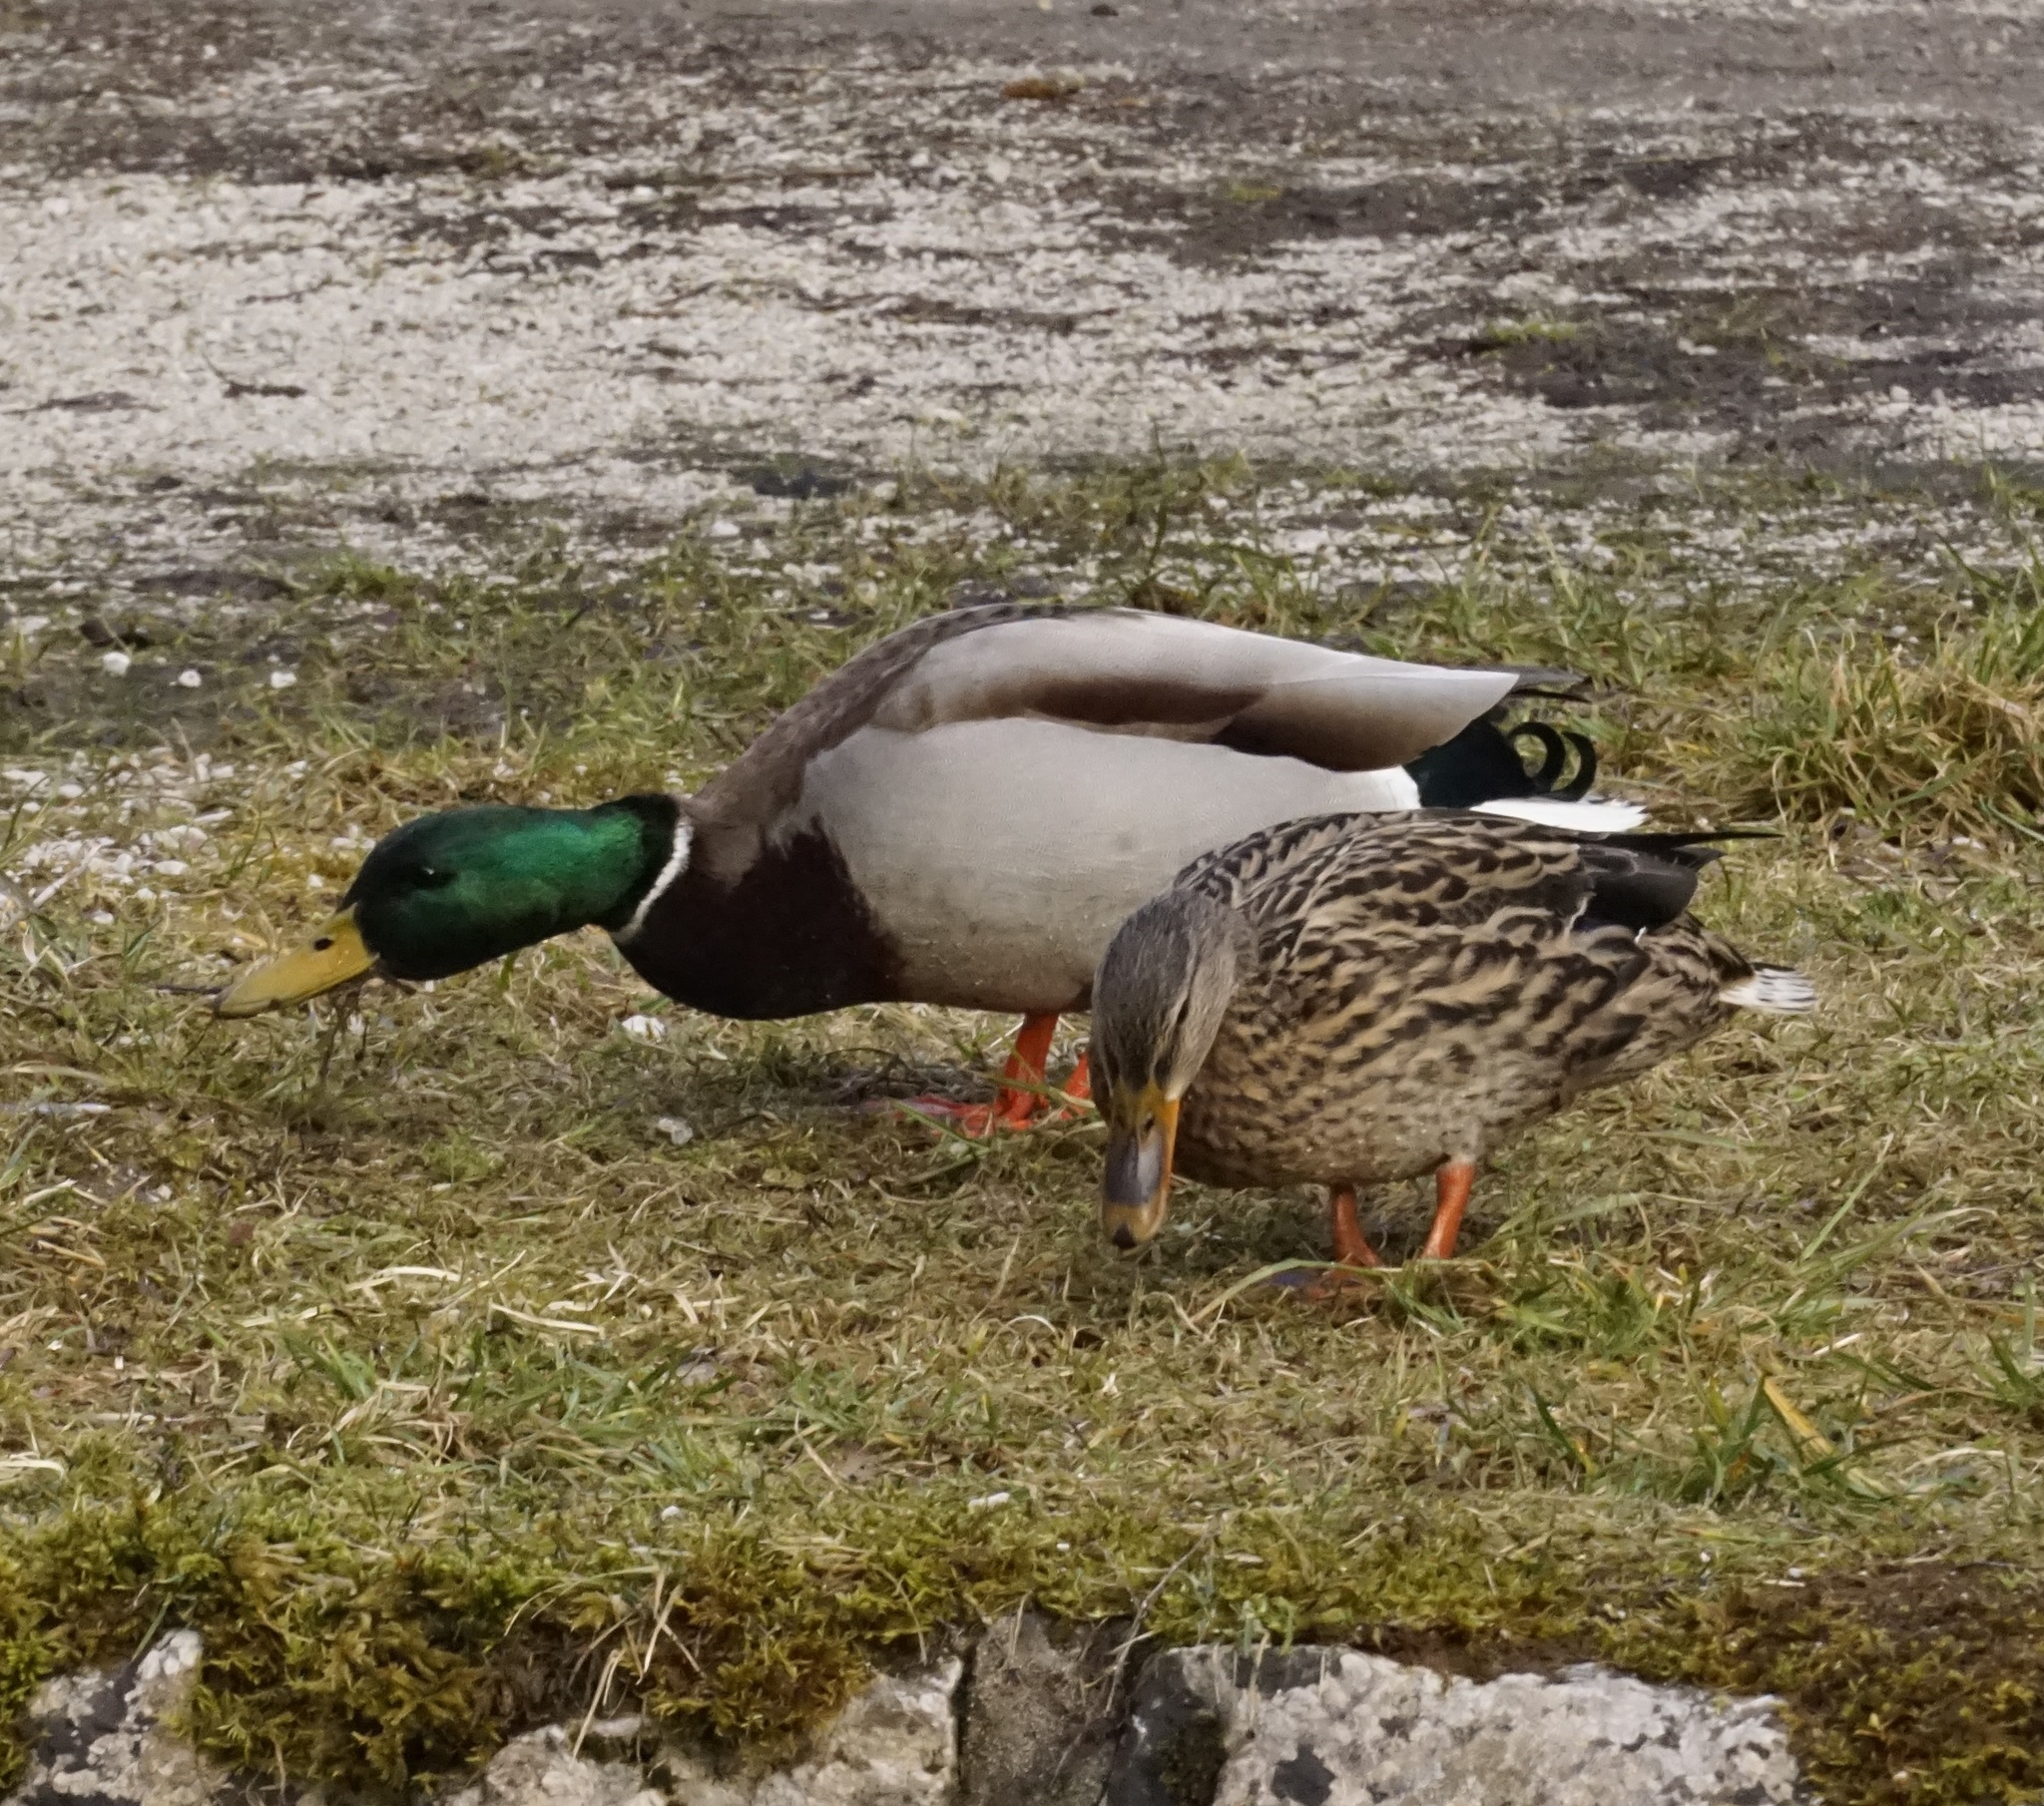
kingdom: Animalia
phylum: Chordata
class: Aves
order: Anseriformes
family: Anatidae
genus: Anas
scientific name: Anas platyrhynchos
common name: Mallard
